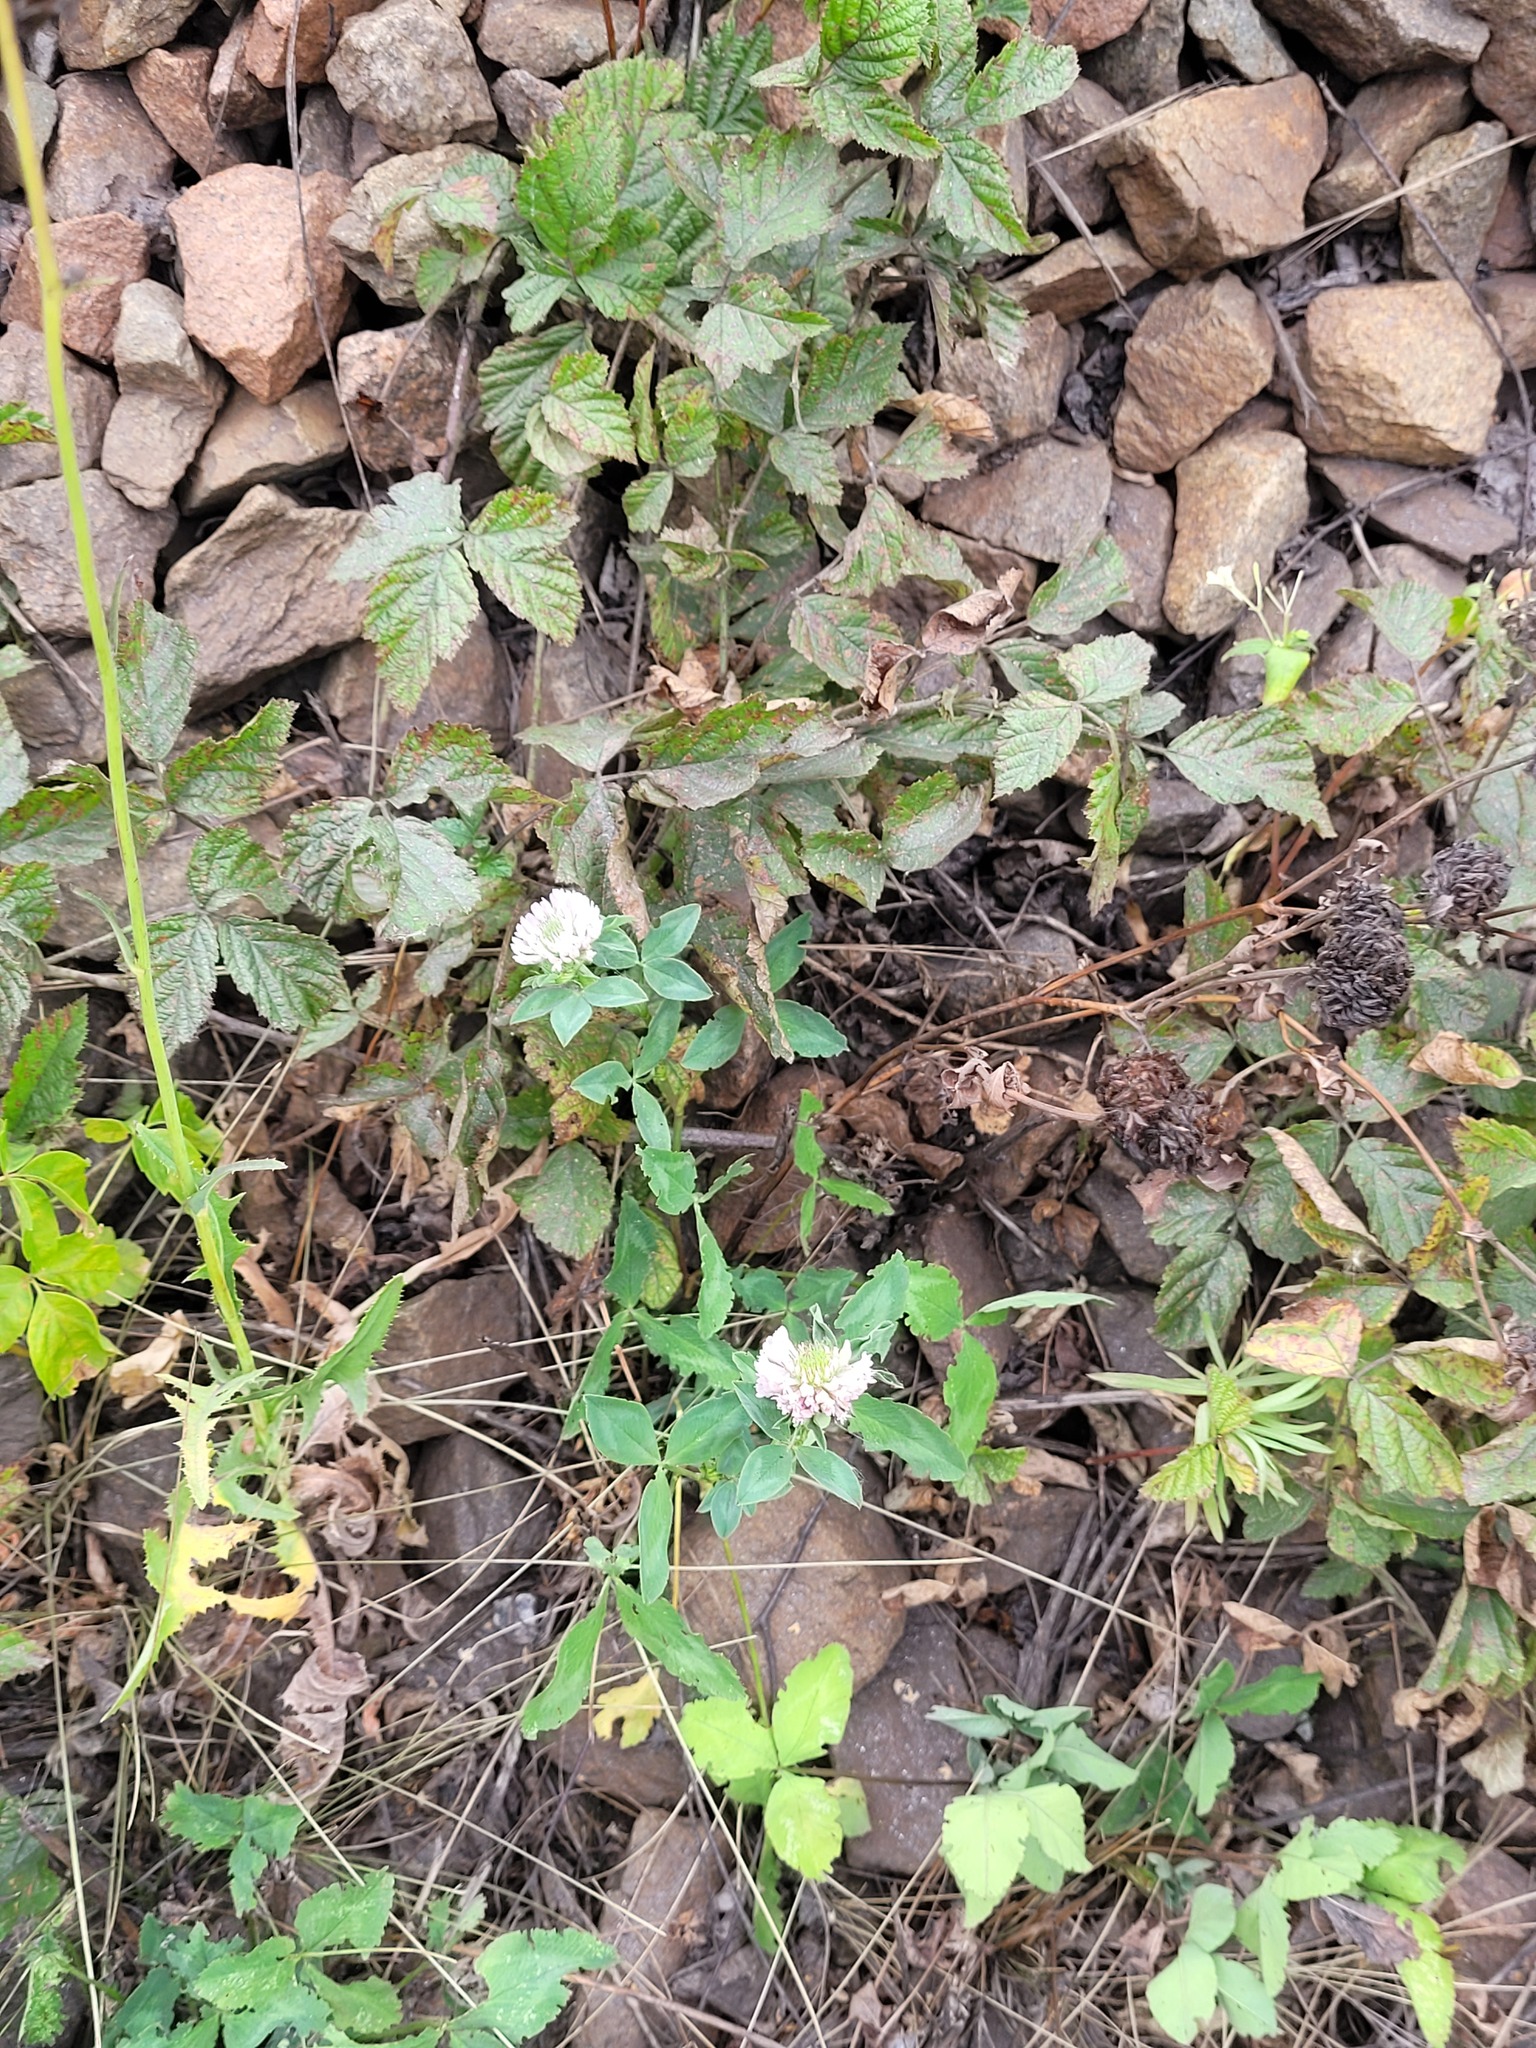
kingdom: Plantae
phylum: Tracheophyta
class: Magnoliopsida
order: Fabales
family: Fabaceae
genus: Trifolium
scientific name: Trifolium pratense
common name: Red clover
